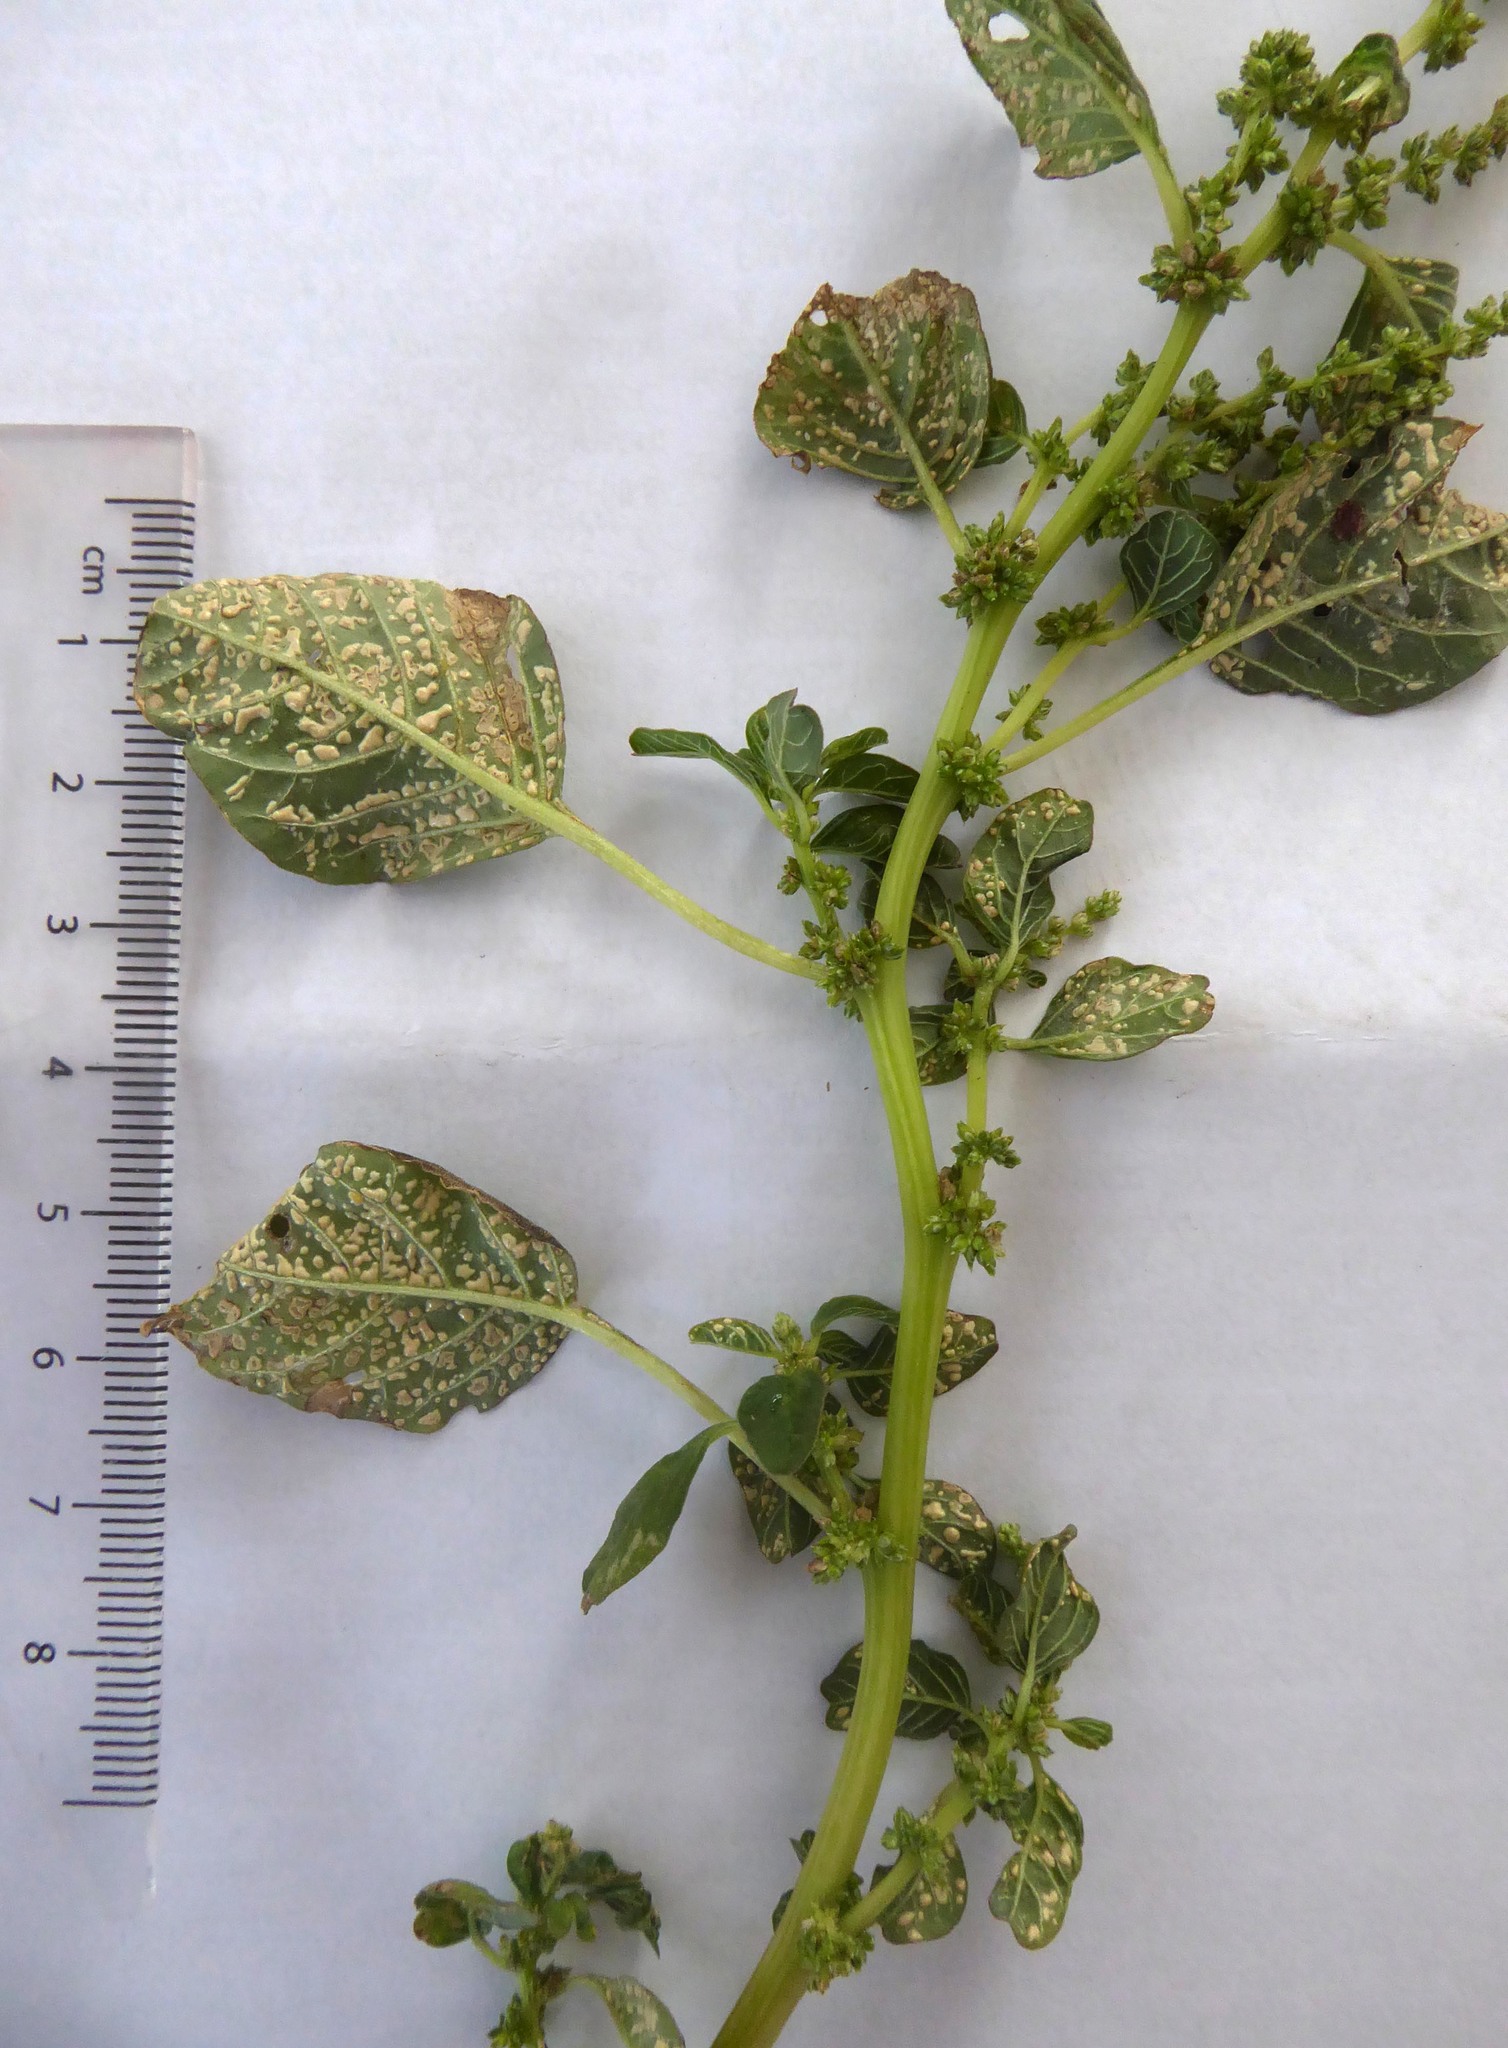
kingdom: Chromista
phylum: Oomycota
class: Peronosporea
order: Albuginales
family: Albuginaceae
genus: Wilsoniana
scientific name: Wilsoniana bliti
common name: White blister rust disease
